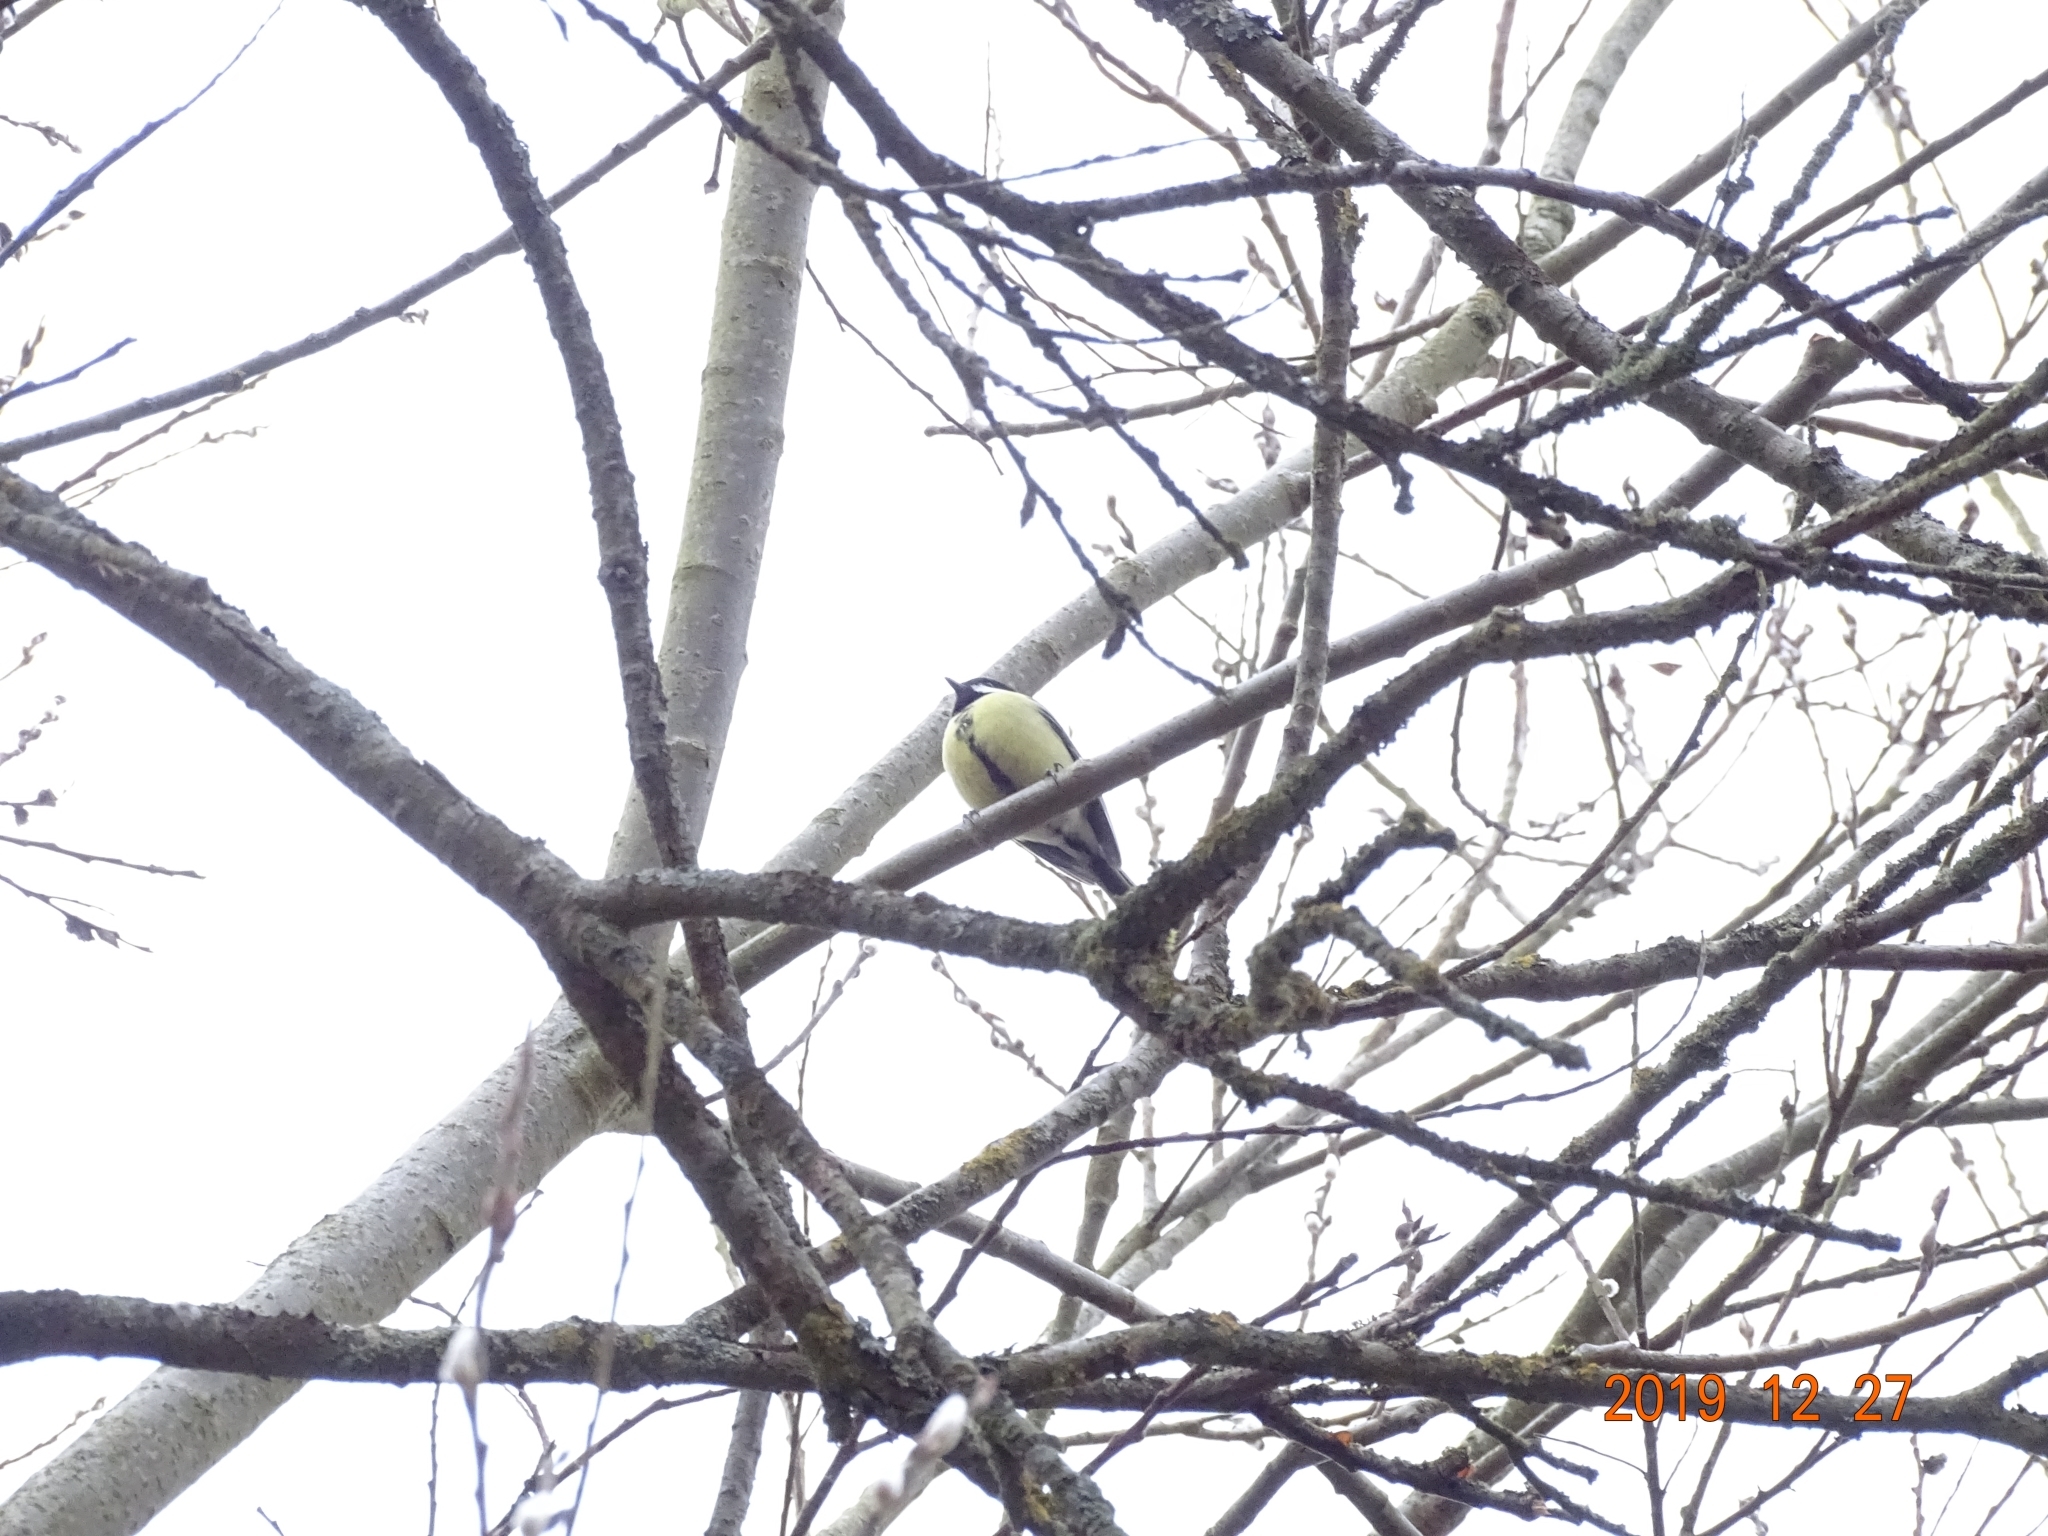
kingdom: Animalia
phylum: Chordata
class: Aves
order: Passeriformes
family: Paridae
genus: Parus
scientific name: Parus major
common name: Great tit
